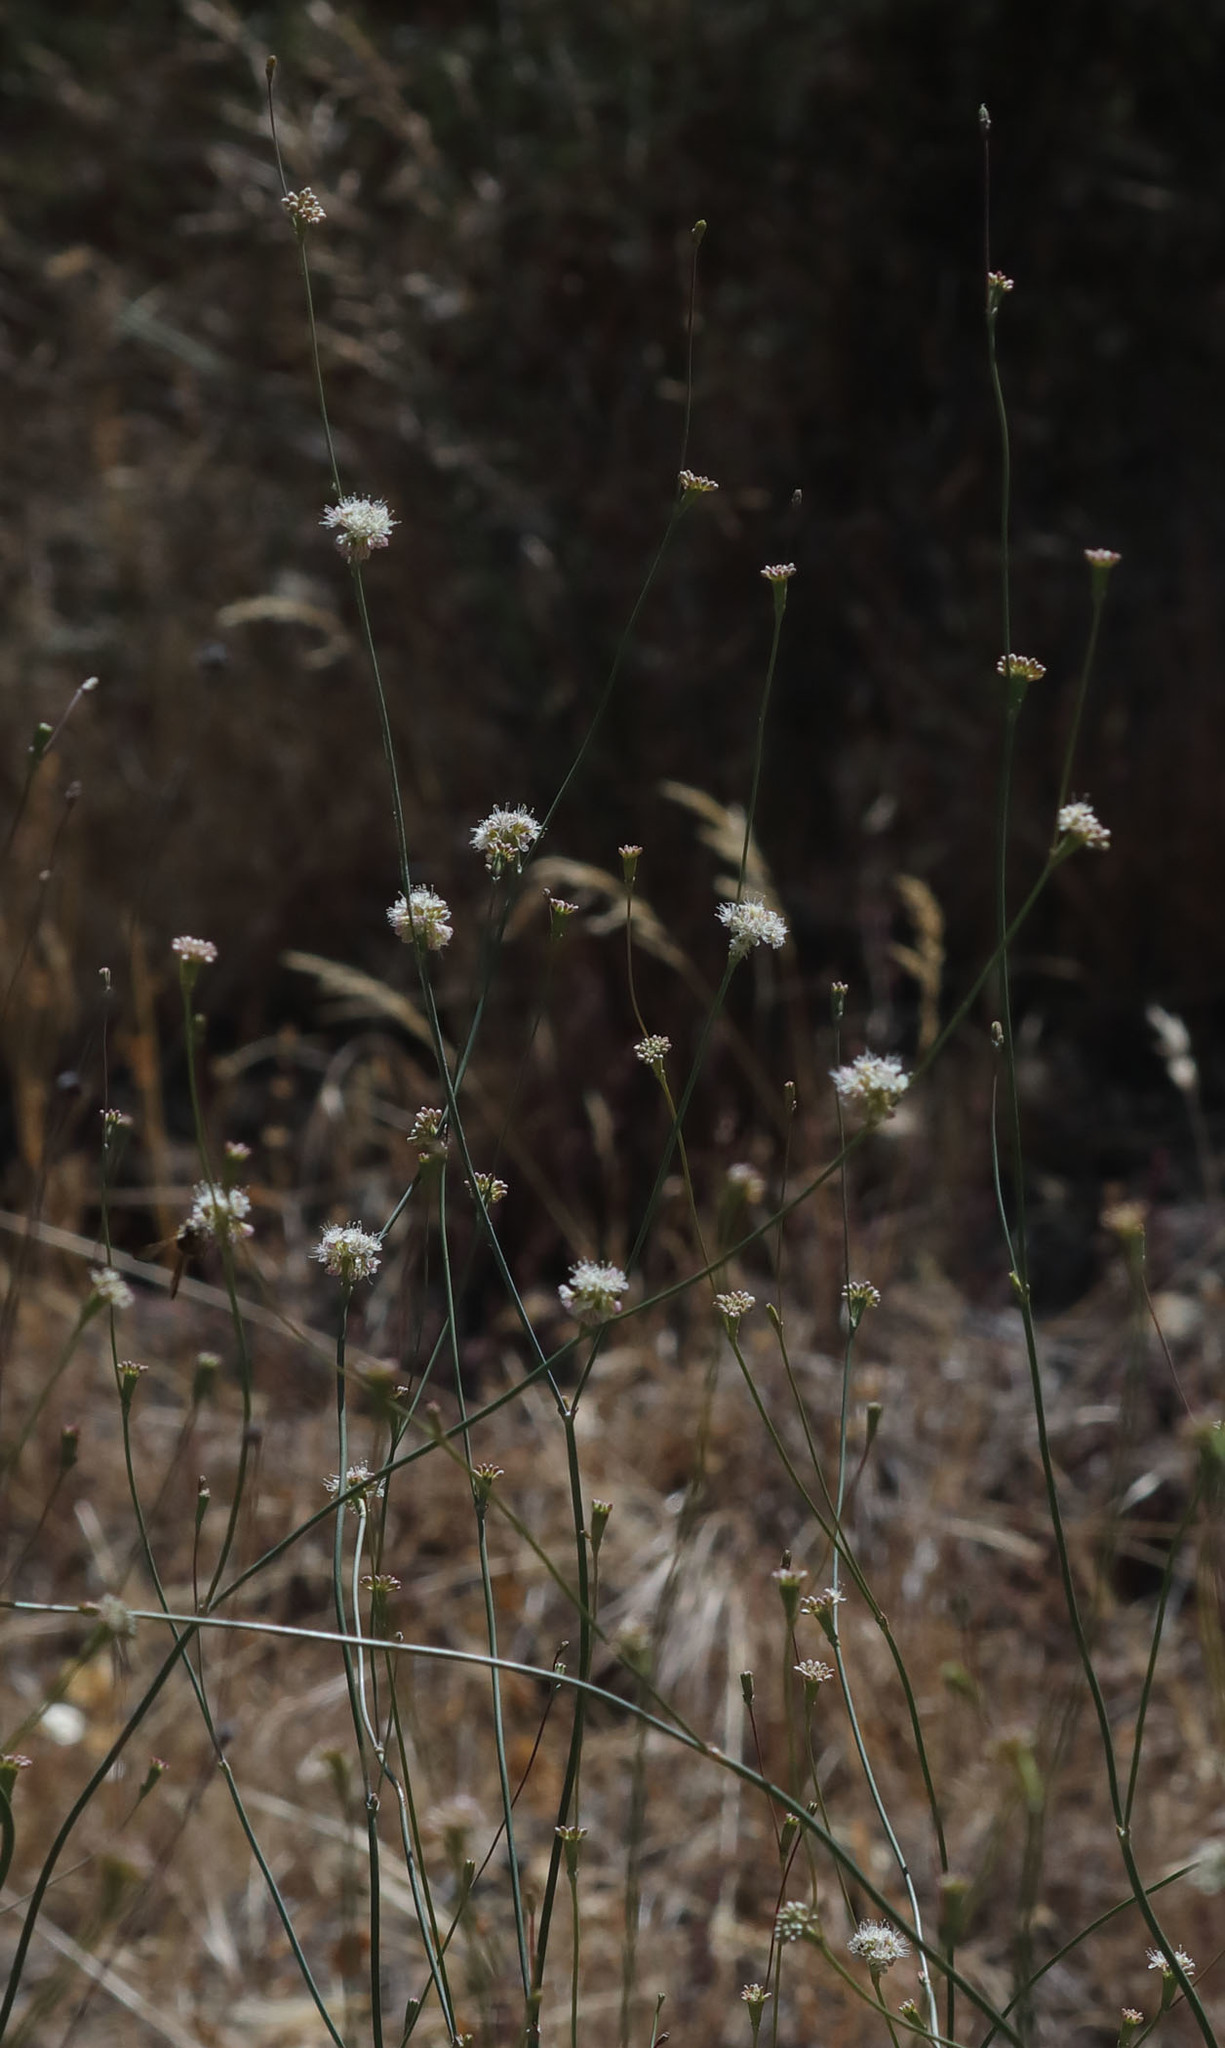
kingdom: Plantae
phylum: Tracheophyta
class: Magnoliopsida
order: Caryophyllales
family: Polygonaceae
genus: Eriogonum
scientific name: Eriogonum nudum
